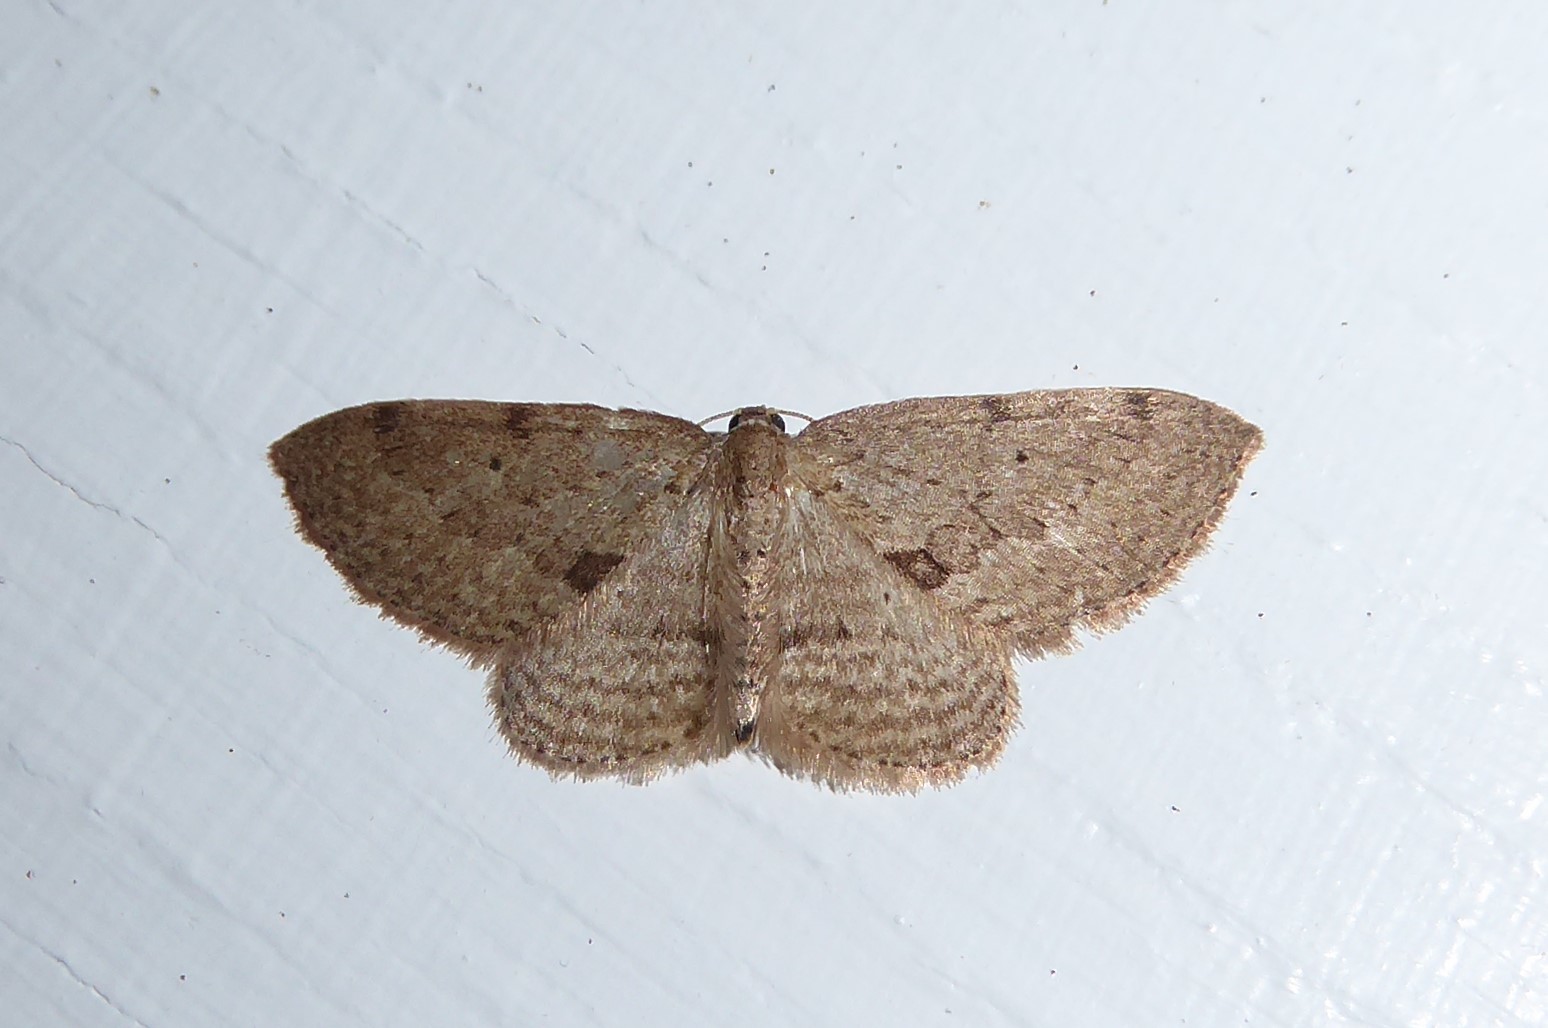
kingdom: Animalia
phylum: Arthropoda
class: Insecta
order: Lepidoptera
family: Geometridae
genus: Poecilasthena
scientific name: Poecilasthena schistaria
